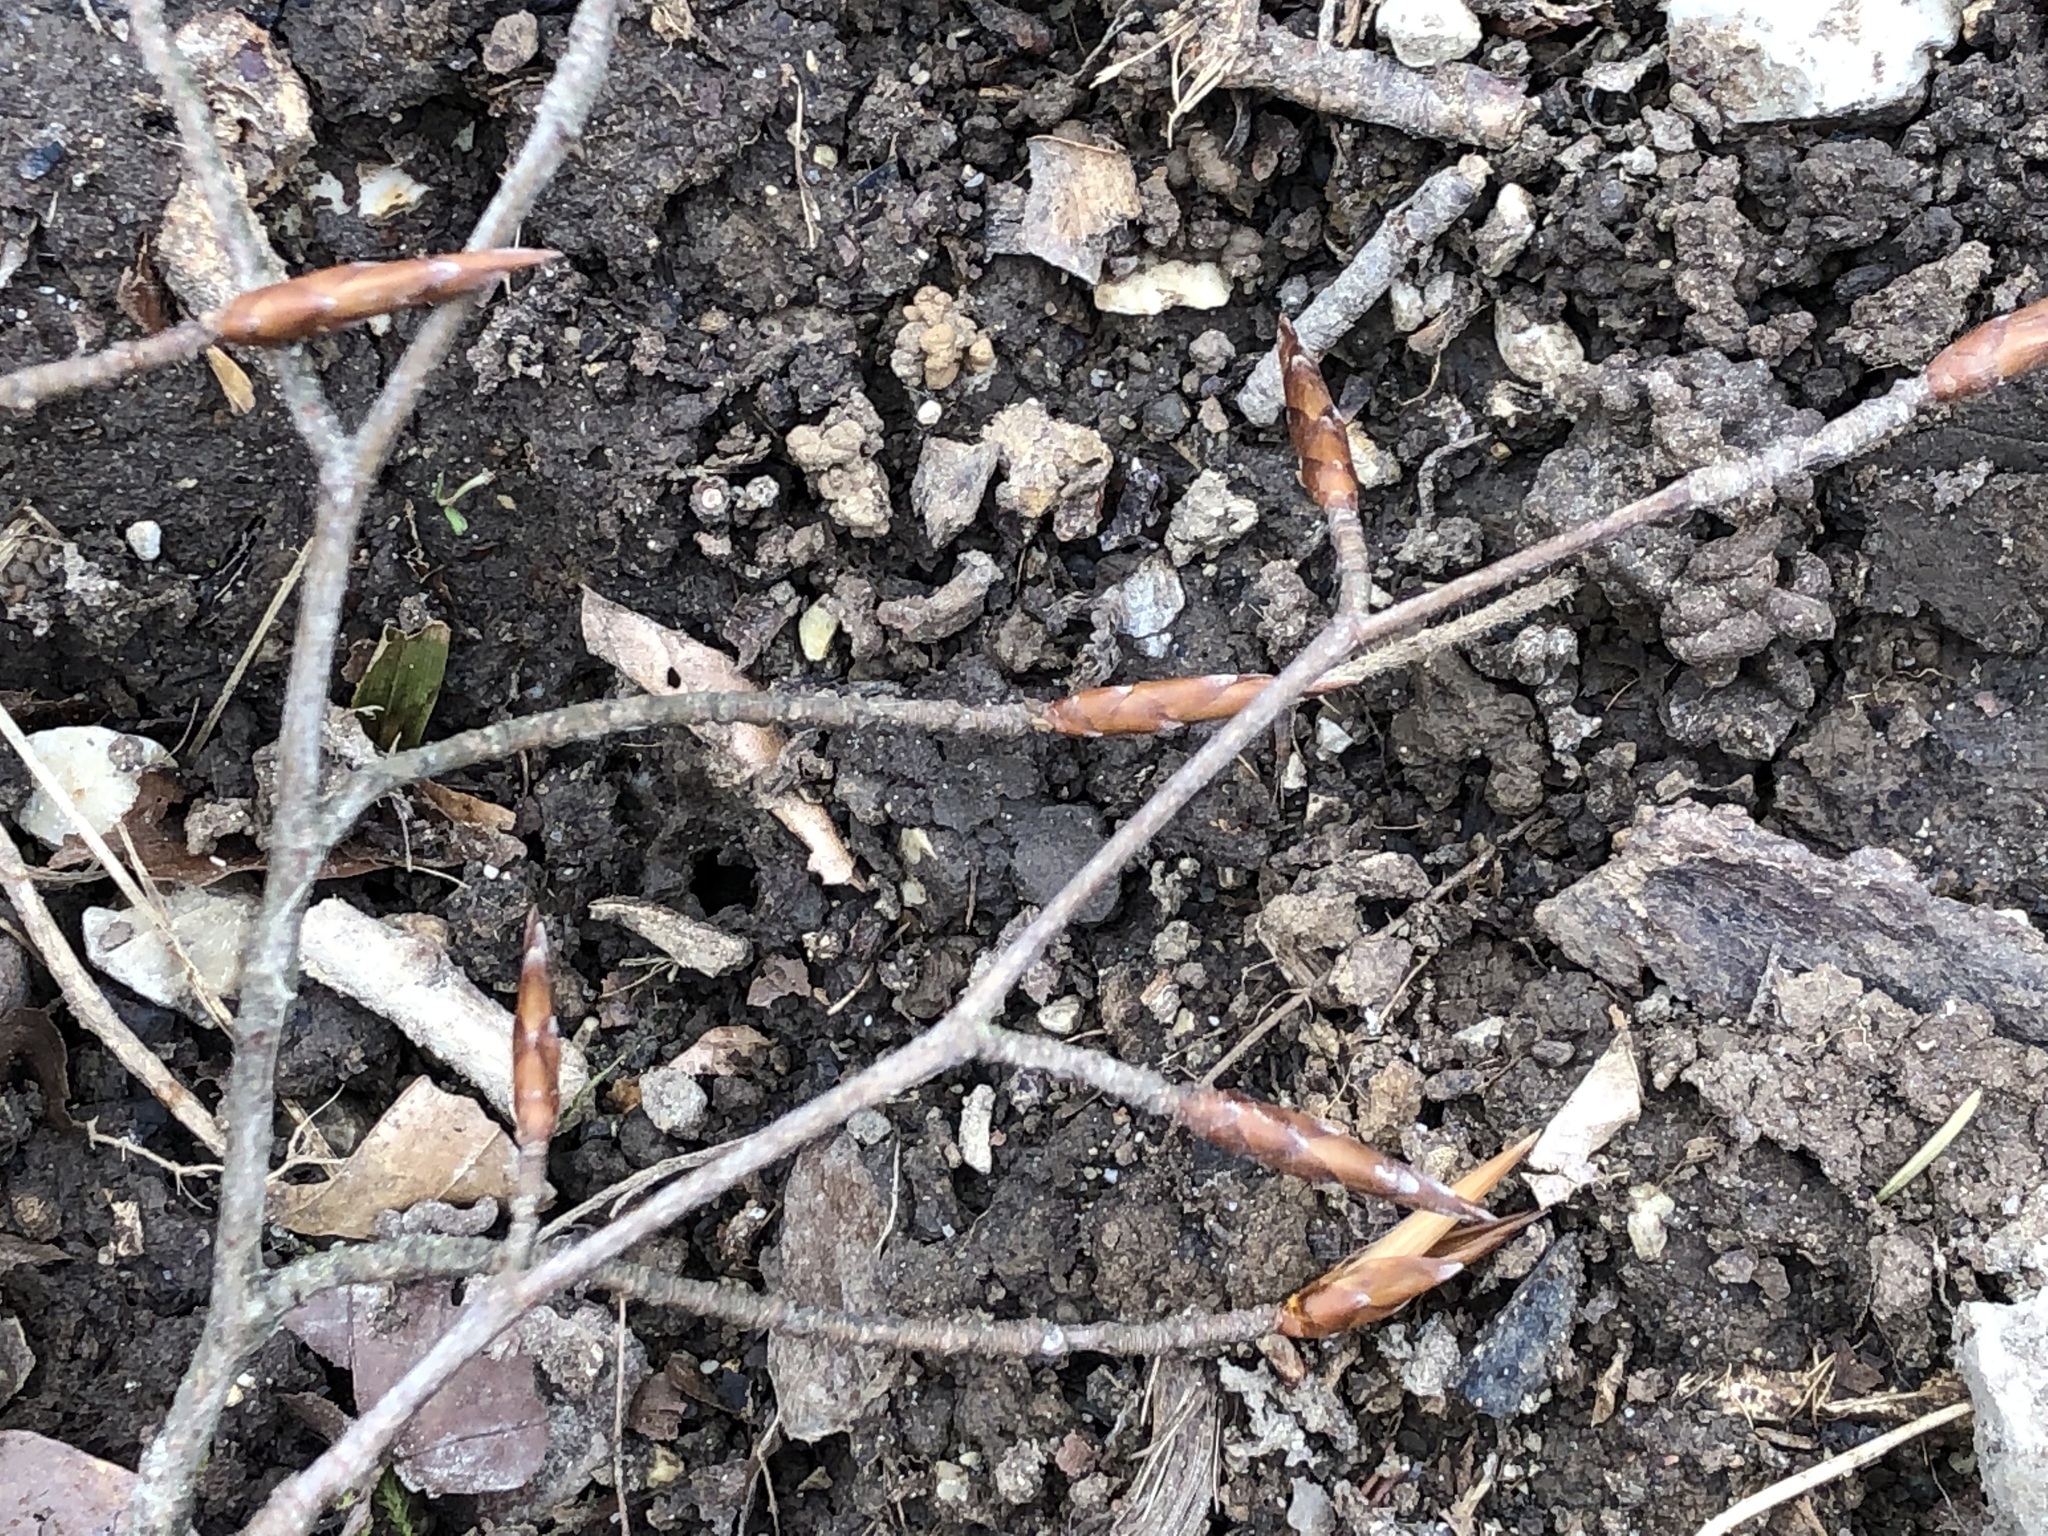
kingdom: Plantae
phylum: Tracheophyta
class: Magnoliopsida
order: Fagales
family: Fagaceae
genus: Fagus
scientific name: Fagus sylvatica
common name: Beech
